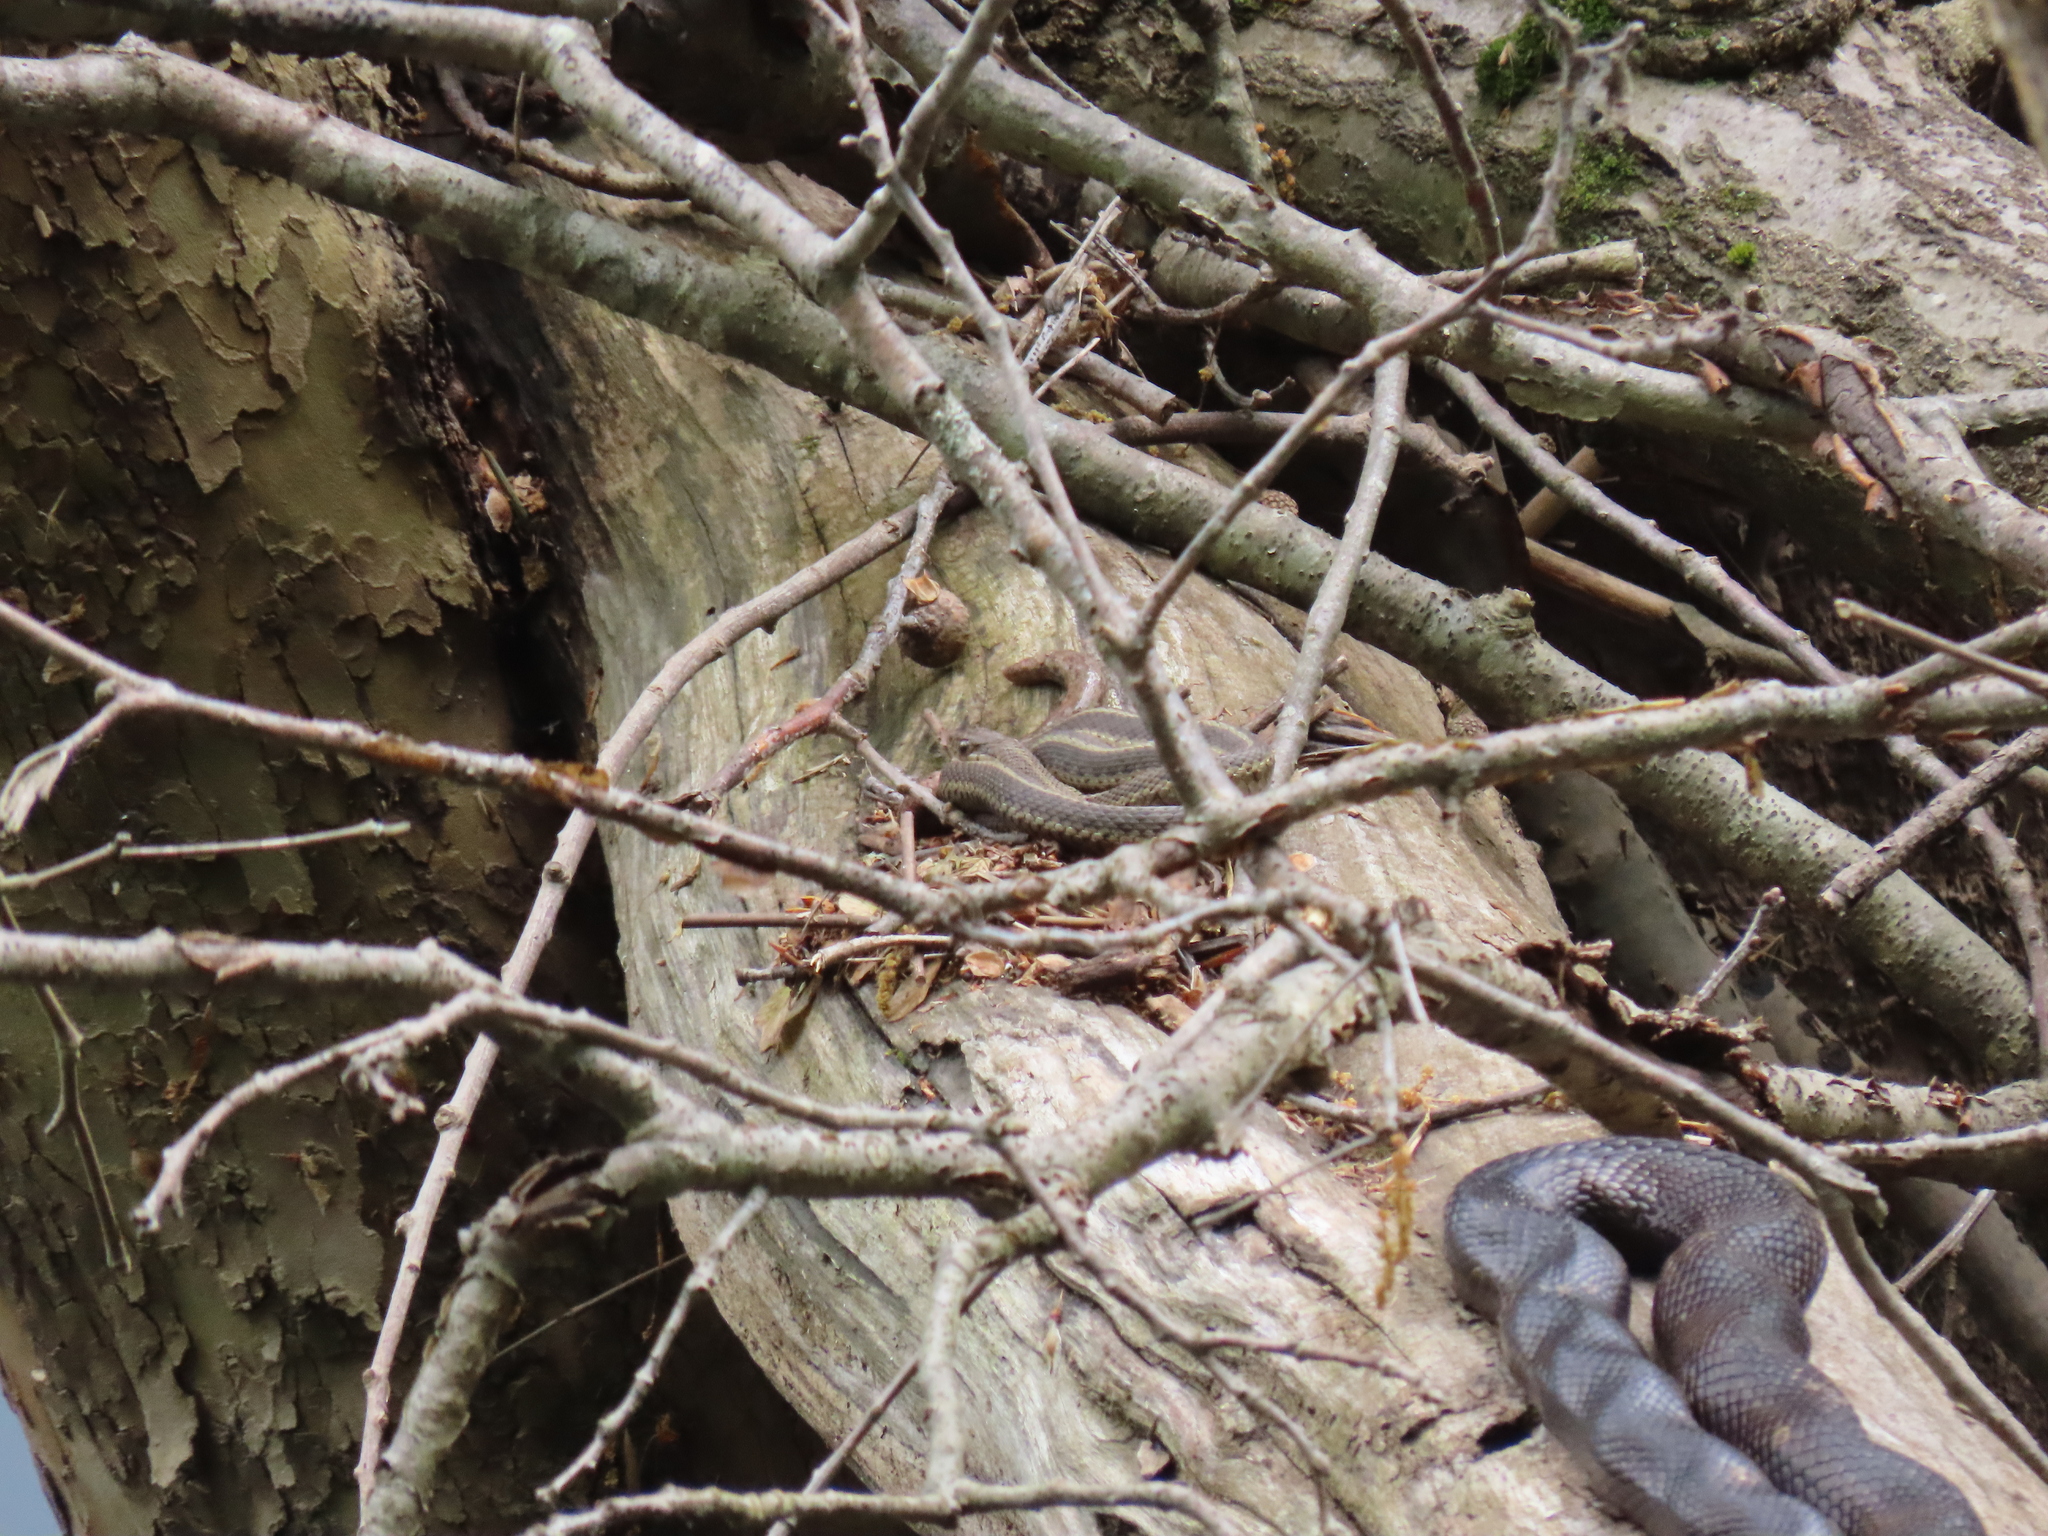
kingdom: Animalia
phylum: Chordata
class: Squamata
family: Colubridae
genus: Thamnophis
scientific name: Thamnophis sirtalis
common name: Common garter snake
